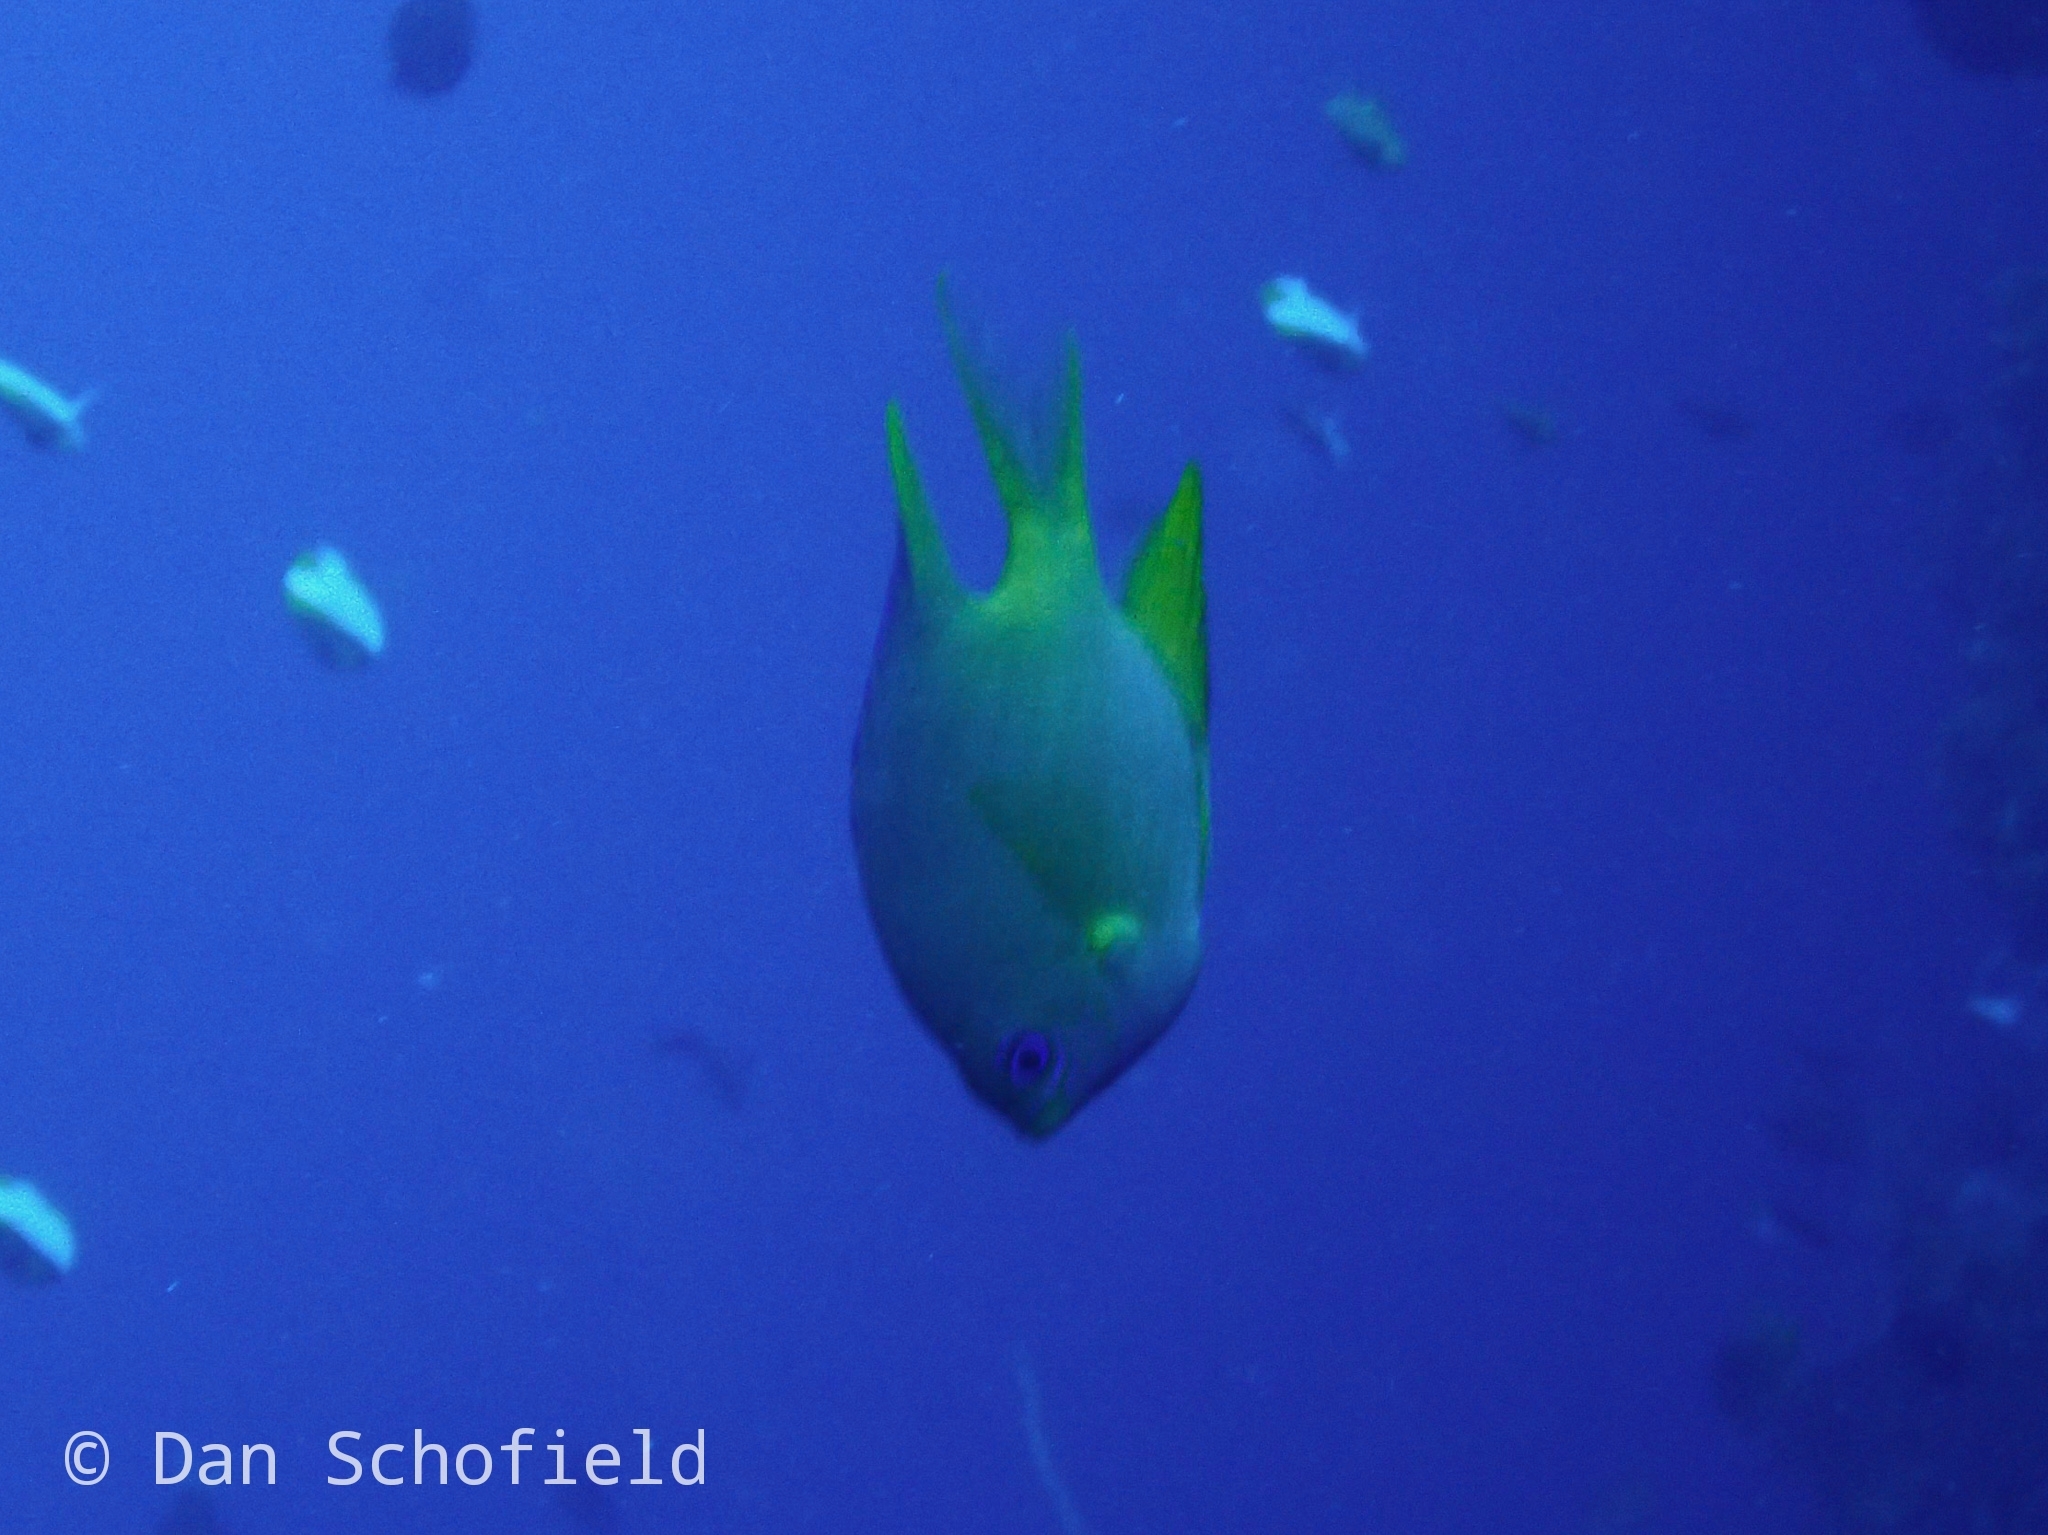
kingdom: Animalia
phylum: Chordata
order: Perciformes
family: Pomacentridae
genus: Amblyglyphidodon
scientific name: Amblyglyphidodon aureus
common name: Golden damsel
